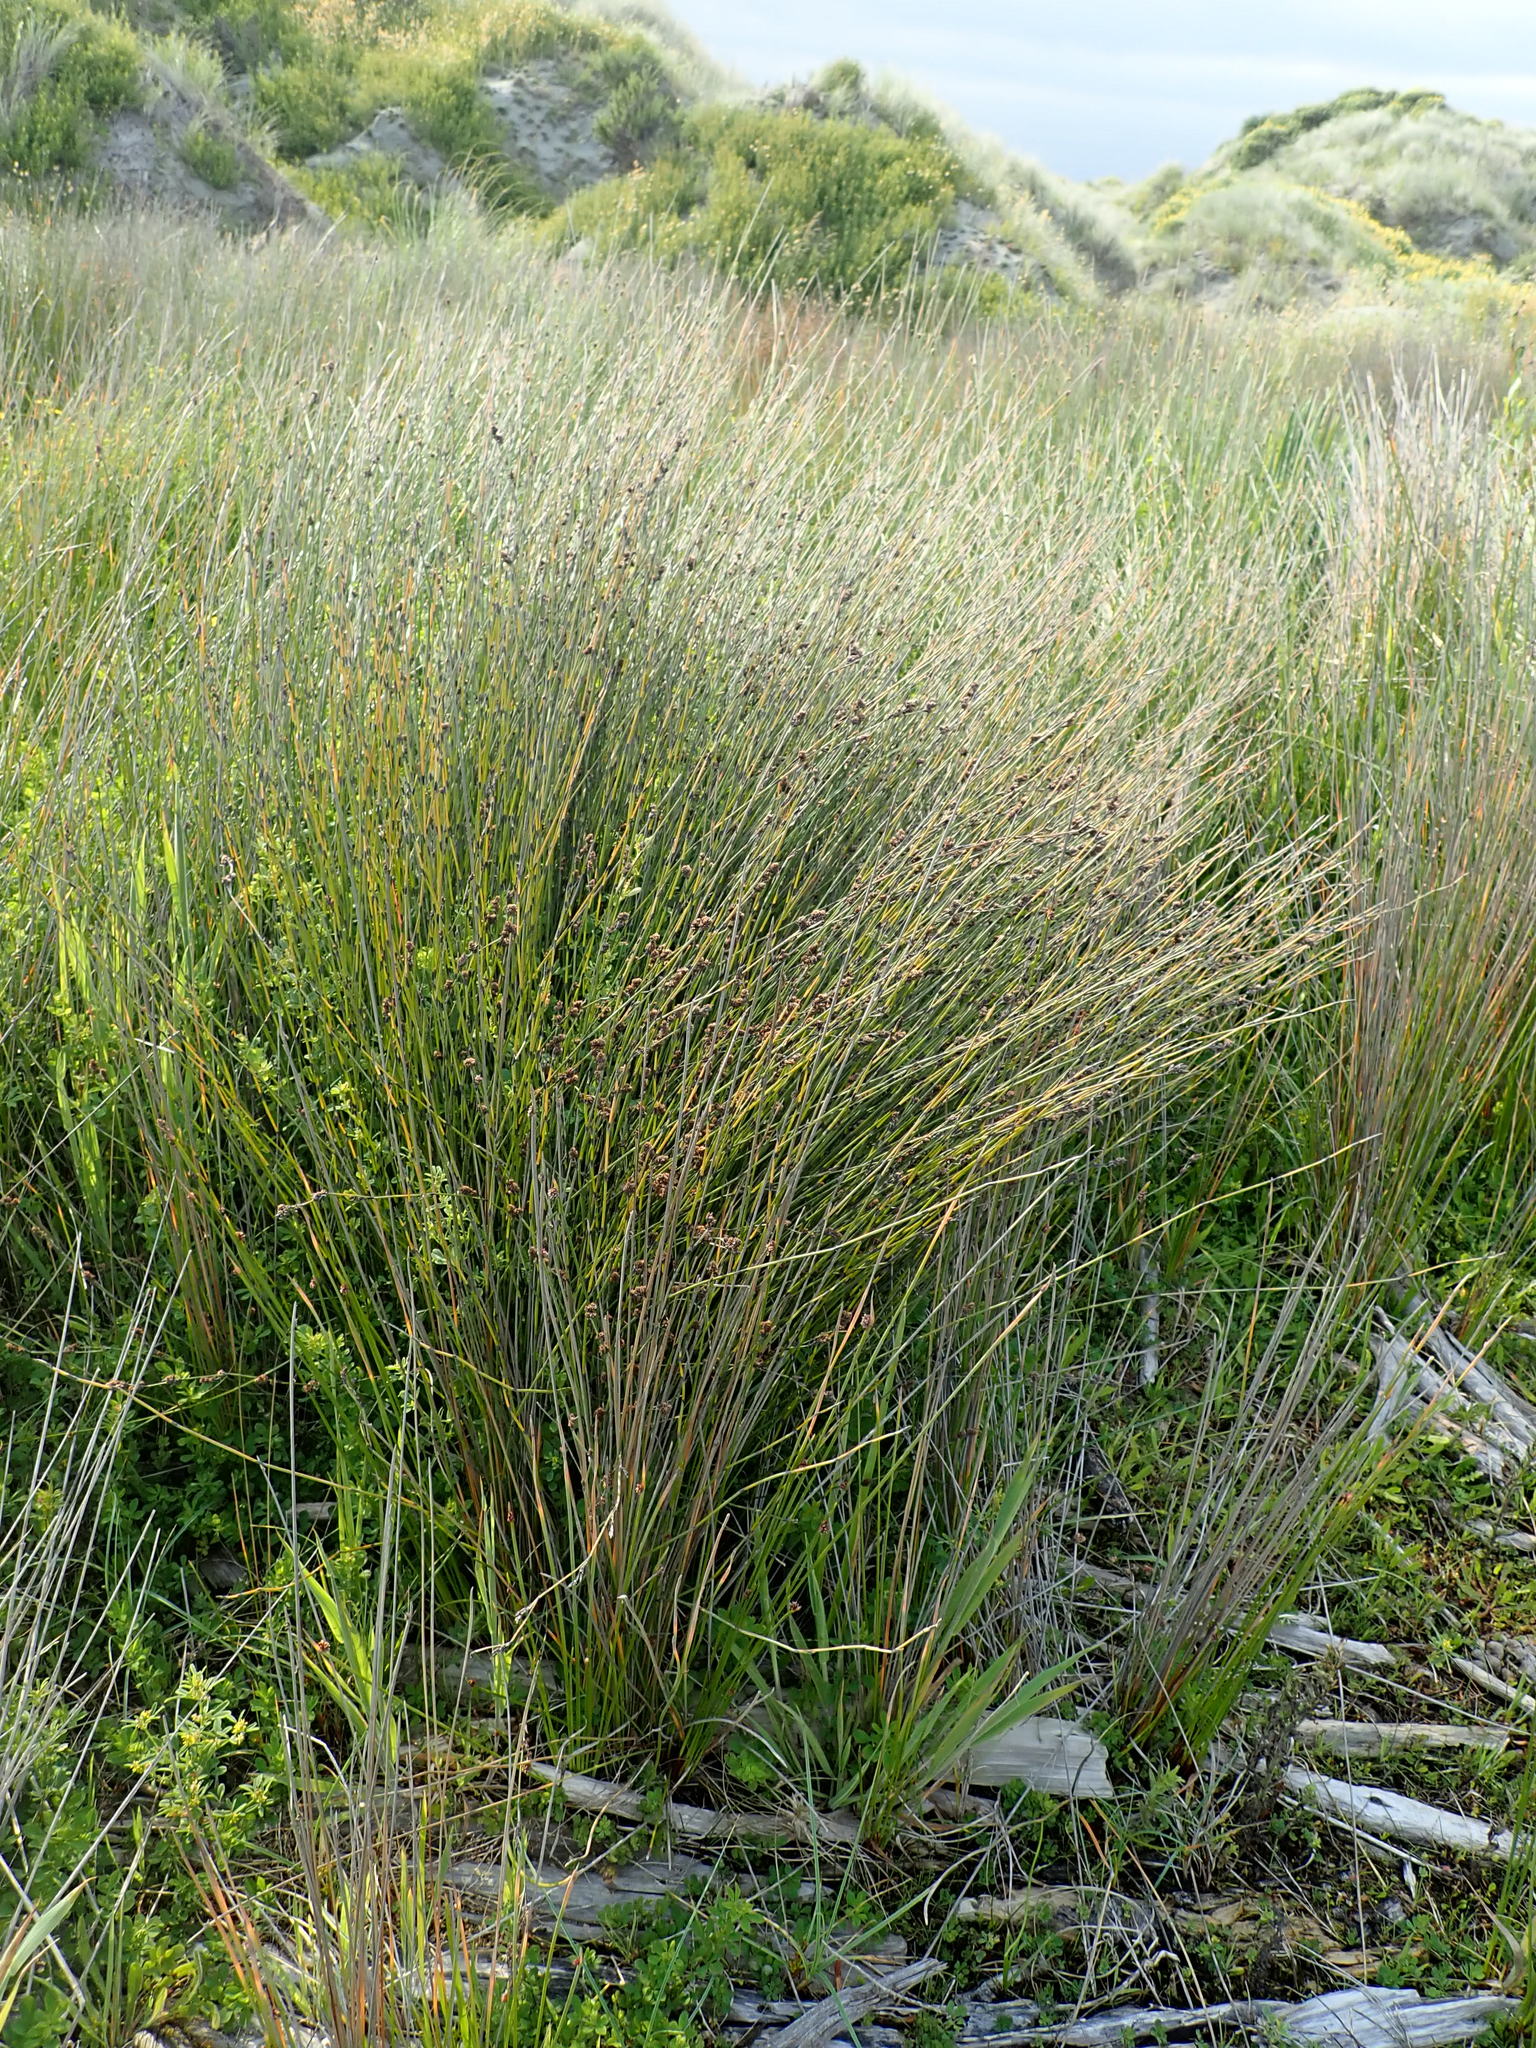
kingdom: Plantae
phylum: Tracheophyta
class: Liliopsida
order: Poales
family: Restionaceae
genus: Apodasmia
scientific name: Apodasmia similis
